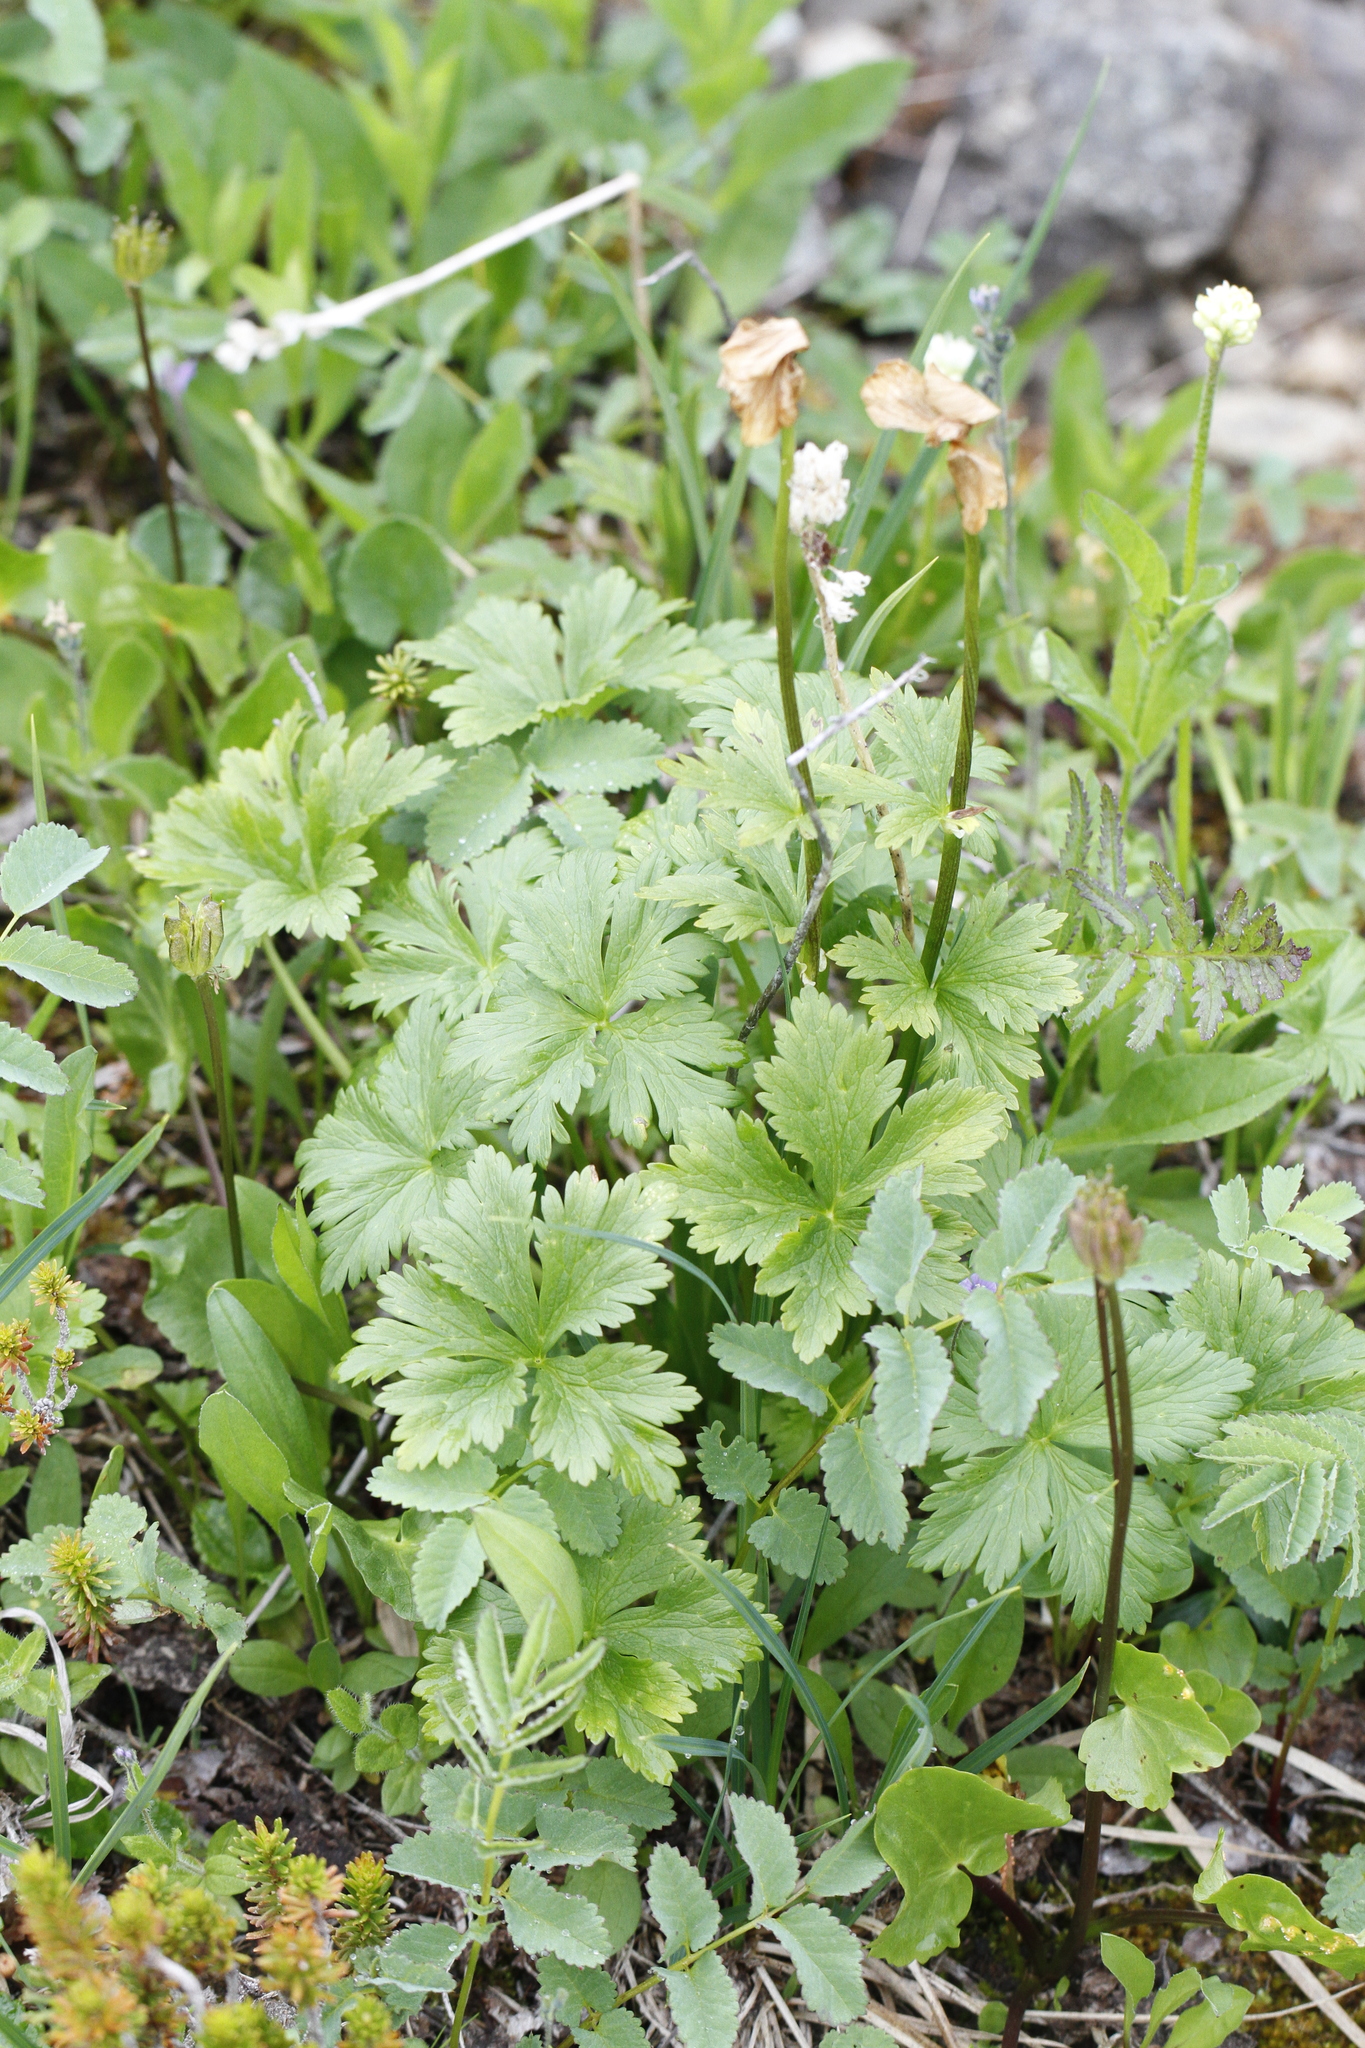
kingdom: Plantae
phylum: Tracheophyta
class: Magnoliopsida
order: Ranunculales
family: Ranunculaceae
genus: Trollius
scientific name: Trollius laxus
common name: American globeflower
